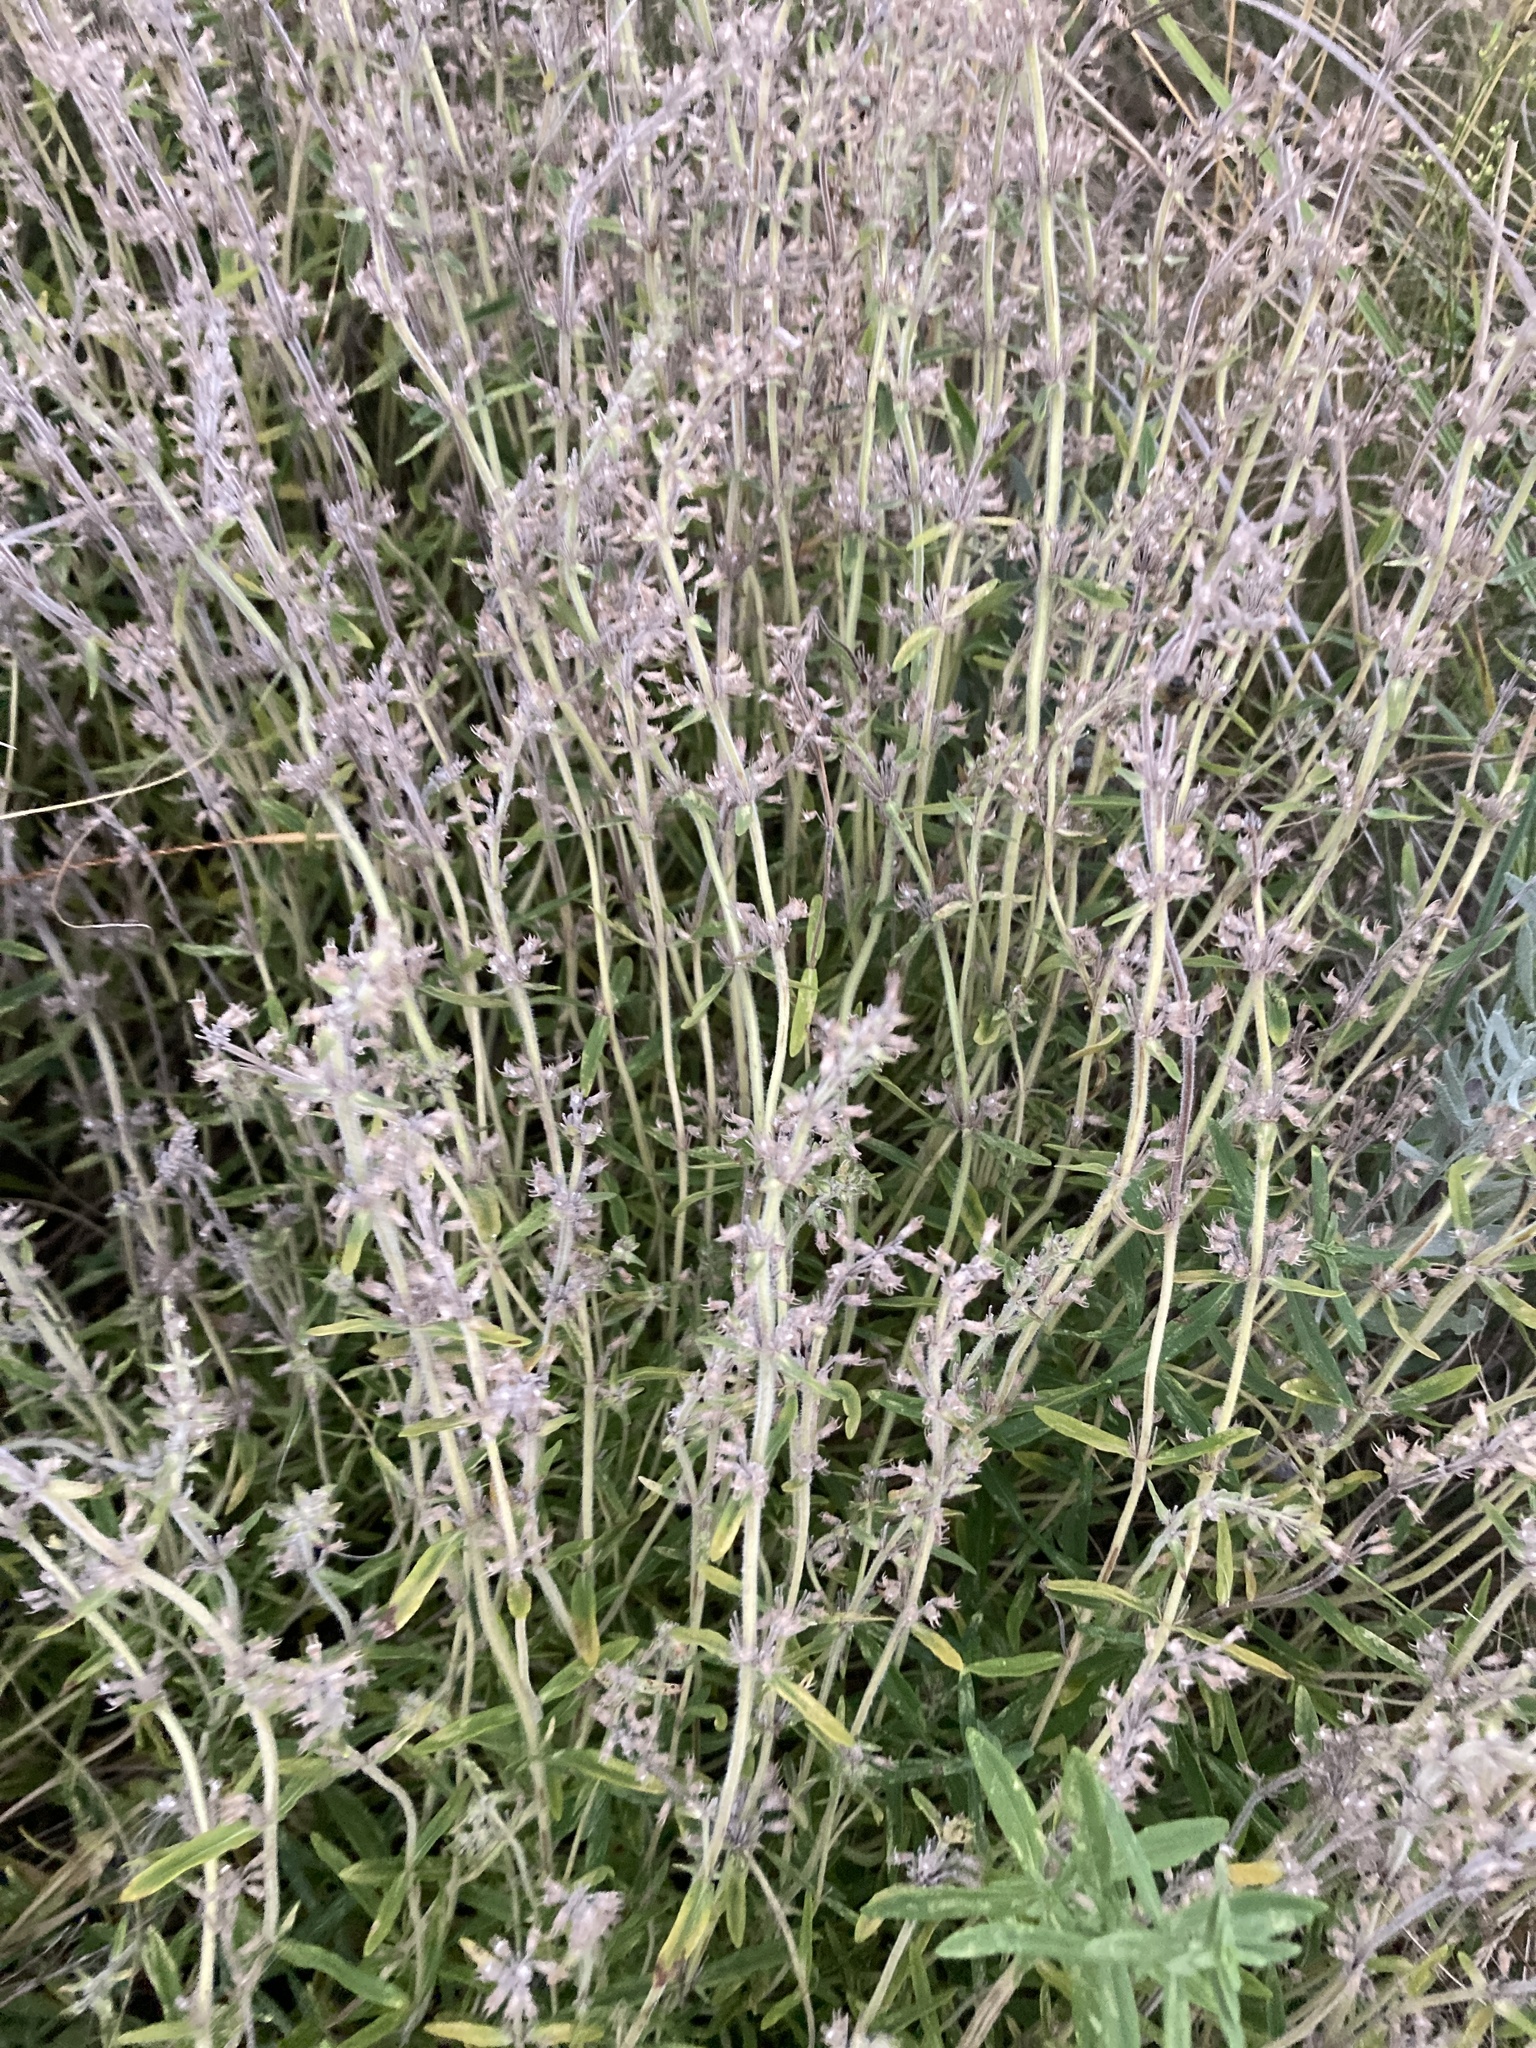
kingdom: Plantae
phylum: Tracheophyta
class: Magnoliopsida
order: Lamiales
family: Lamiaceae
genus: Thymus
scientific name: Thymus pannonicus
